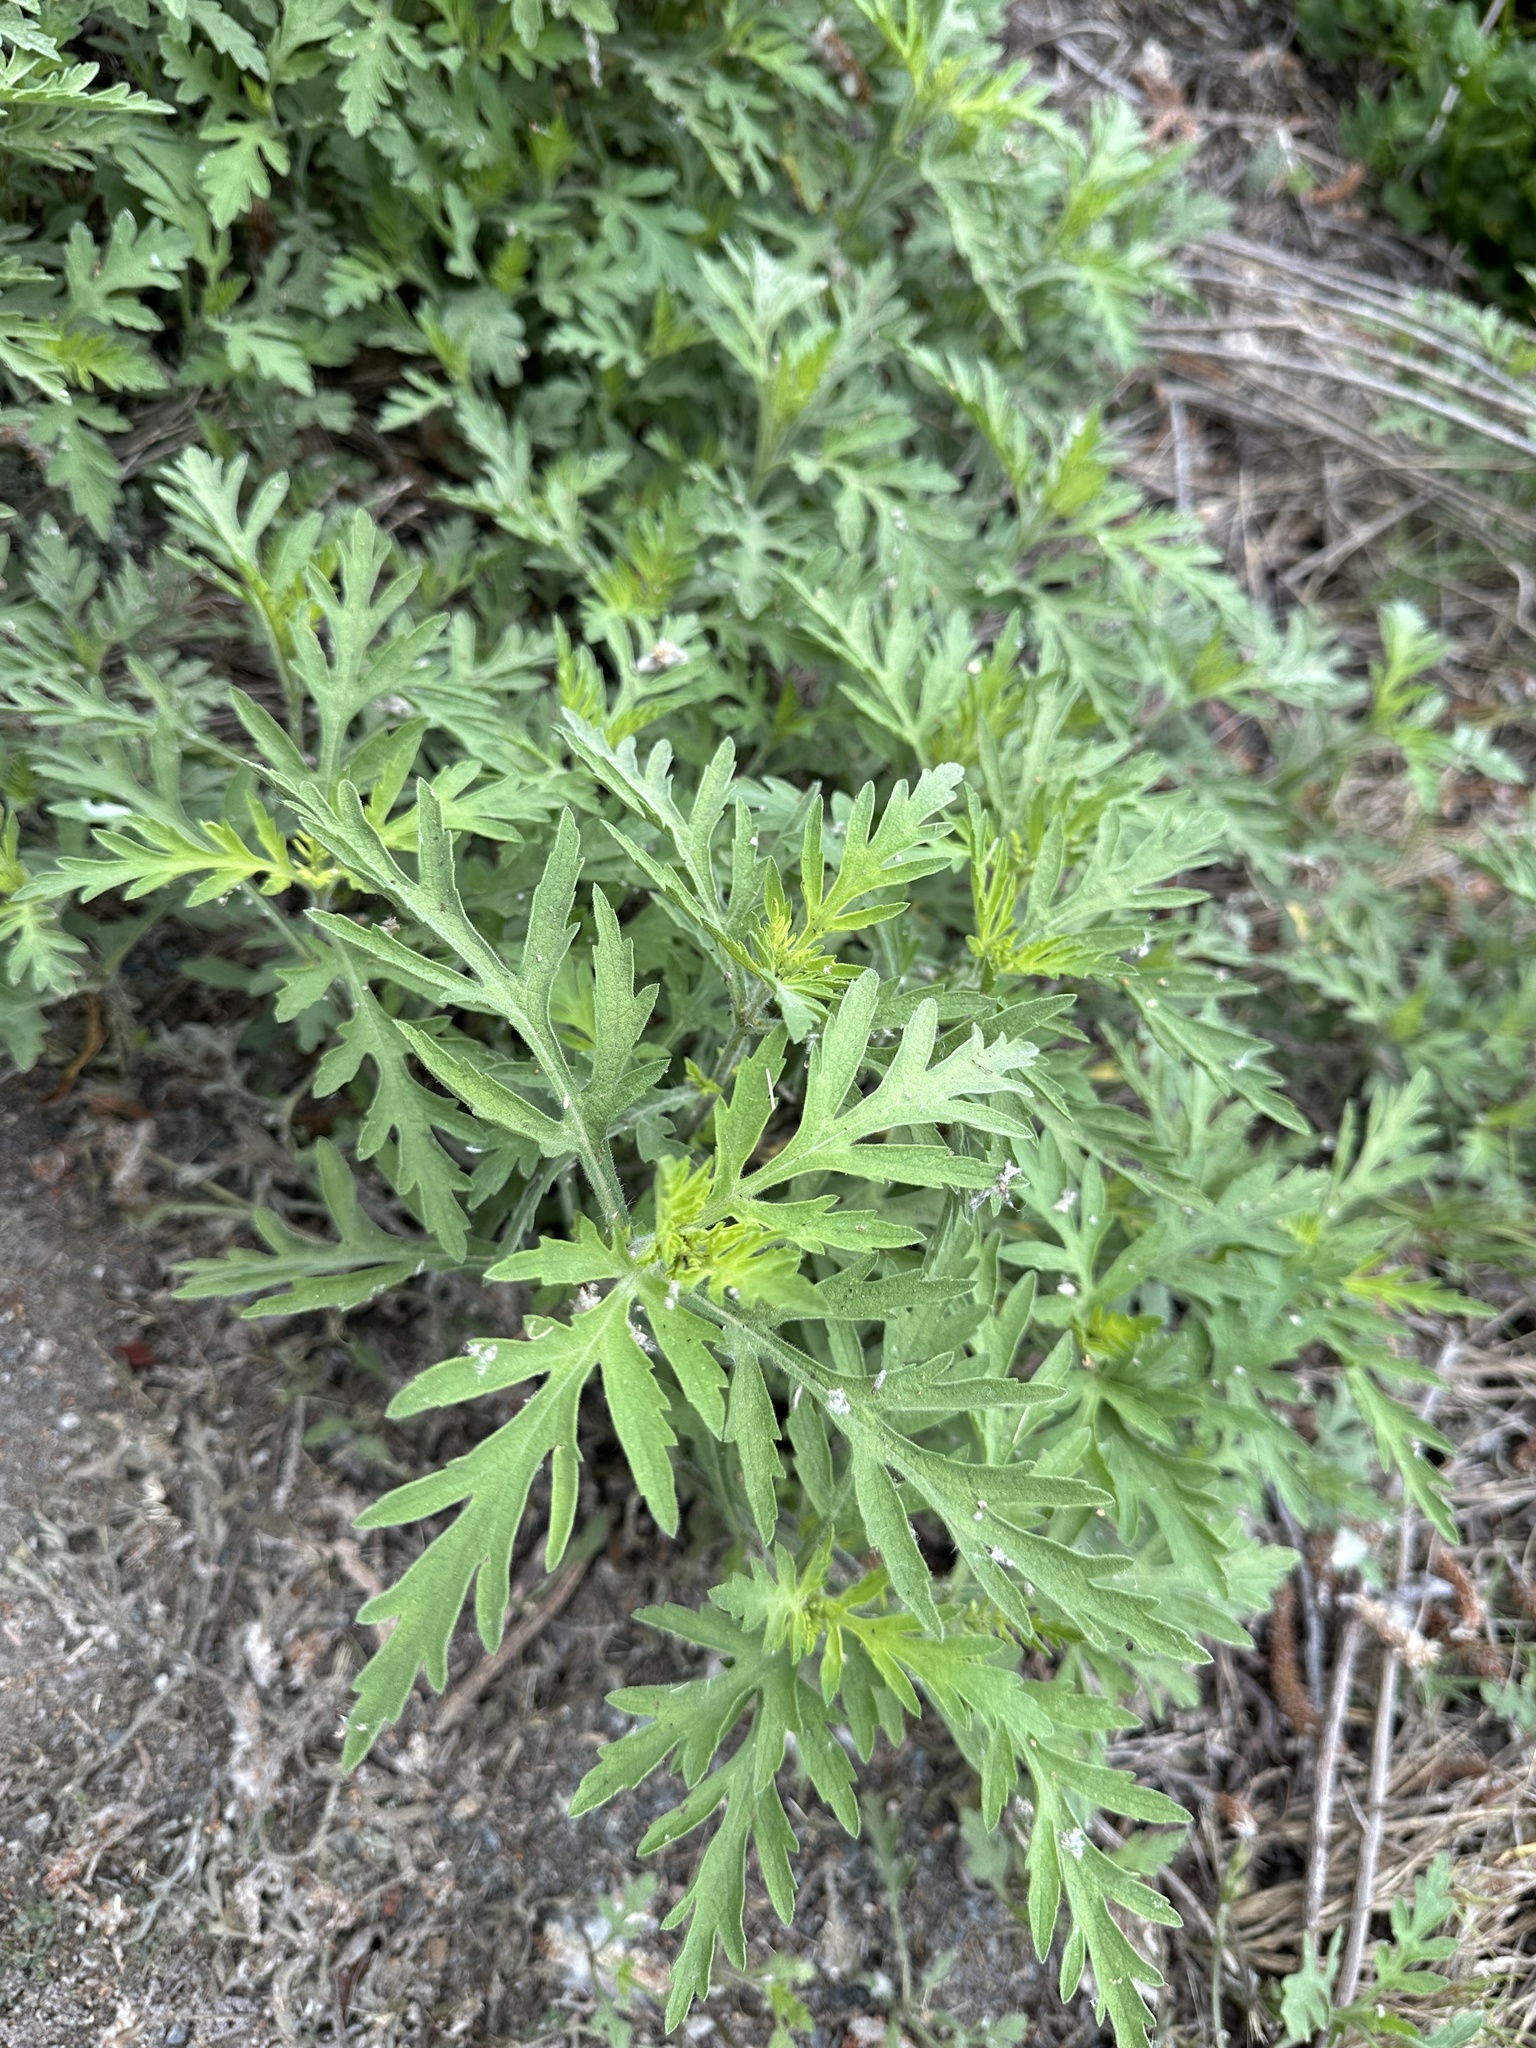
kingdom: Plantae
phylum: Tracheophyta
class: Magnoliopsida
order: Asterales
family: Asteraceae
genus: Ambrosia
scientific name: Ambrosia psilostachya
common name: Perennial ragweed
